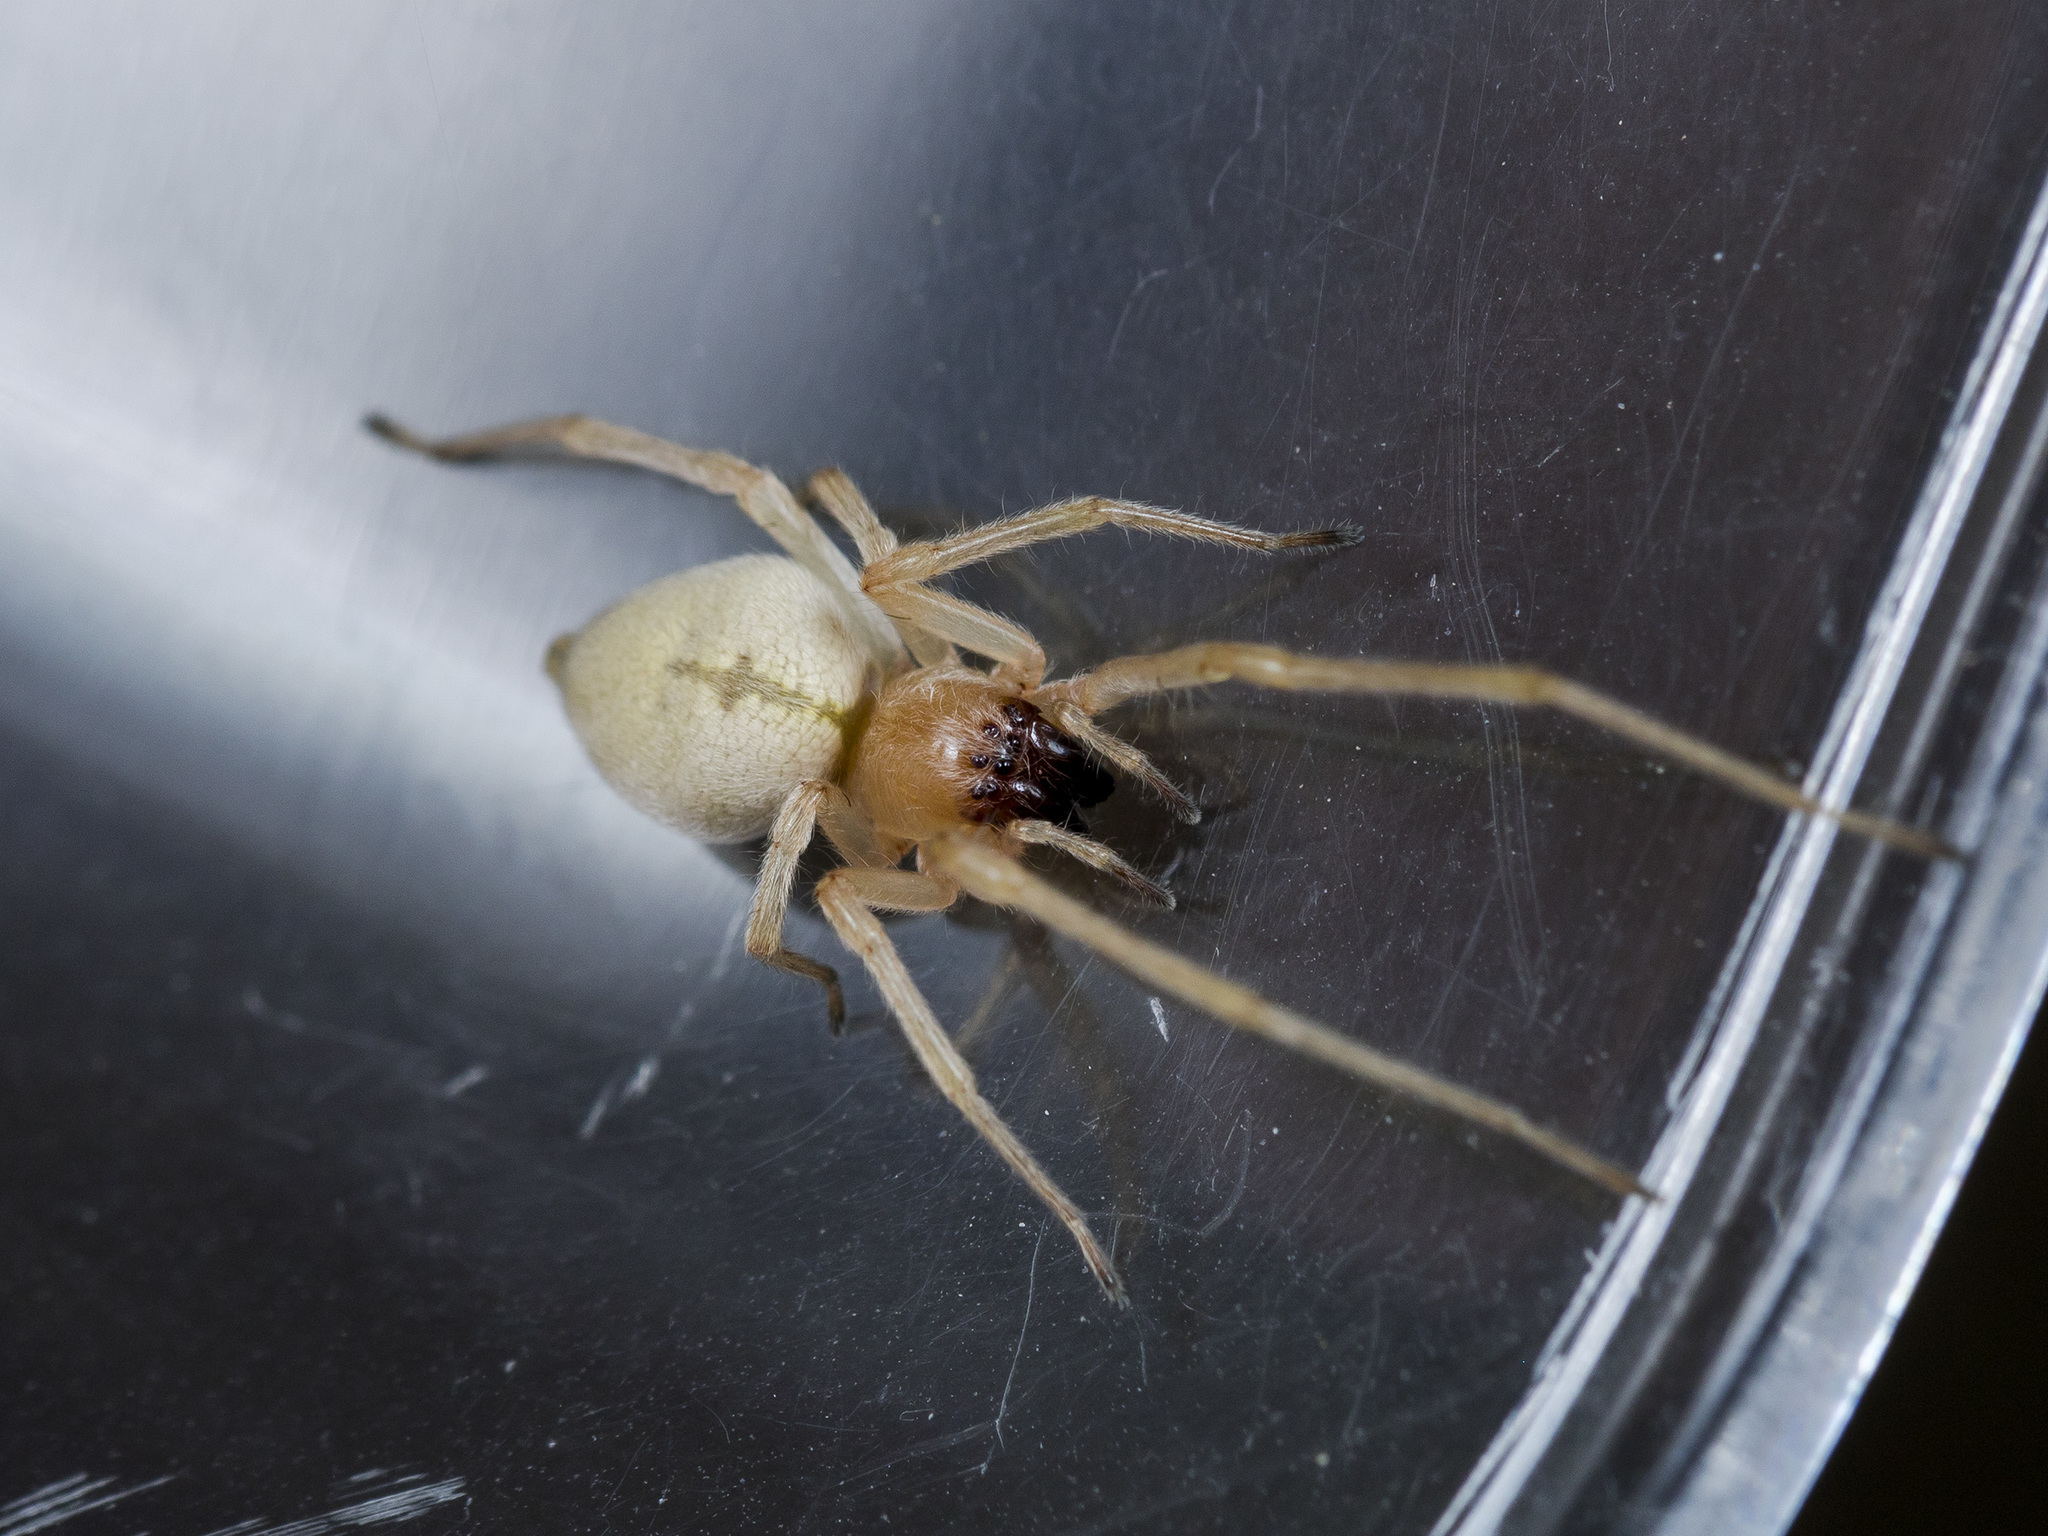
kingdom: Animalia
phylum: Arthropoda
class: Arachnida
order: Araneae
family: Cheiracanthiidae
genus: Cheiracanthium
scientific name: Cheiracanthium virescens
